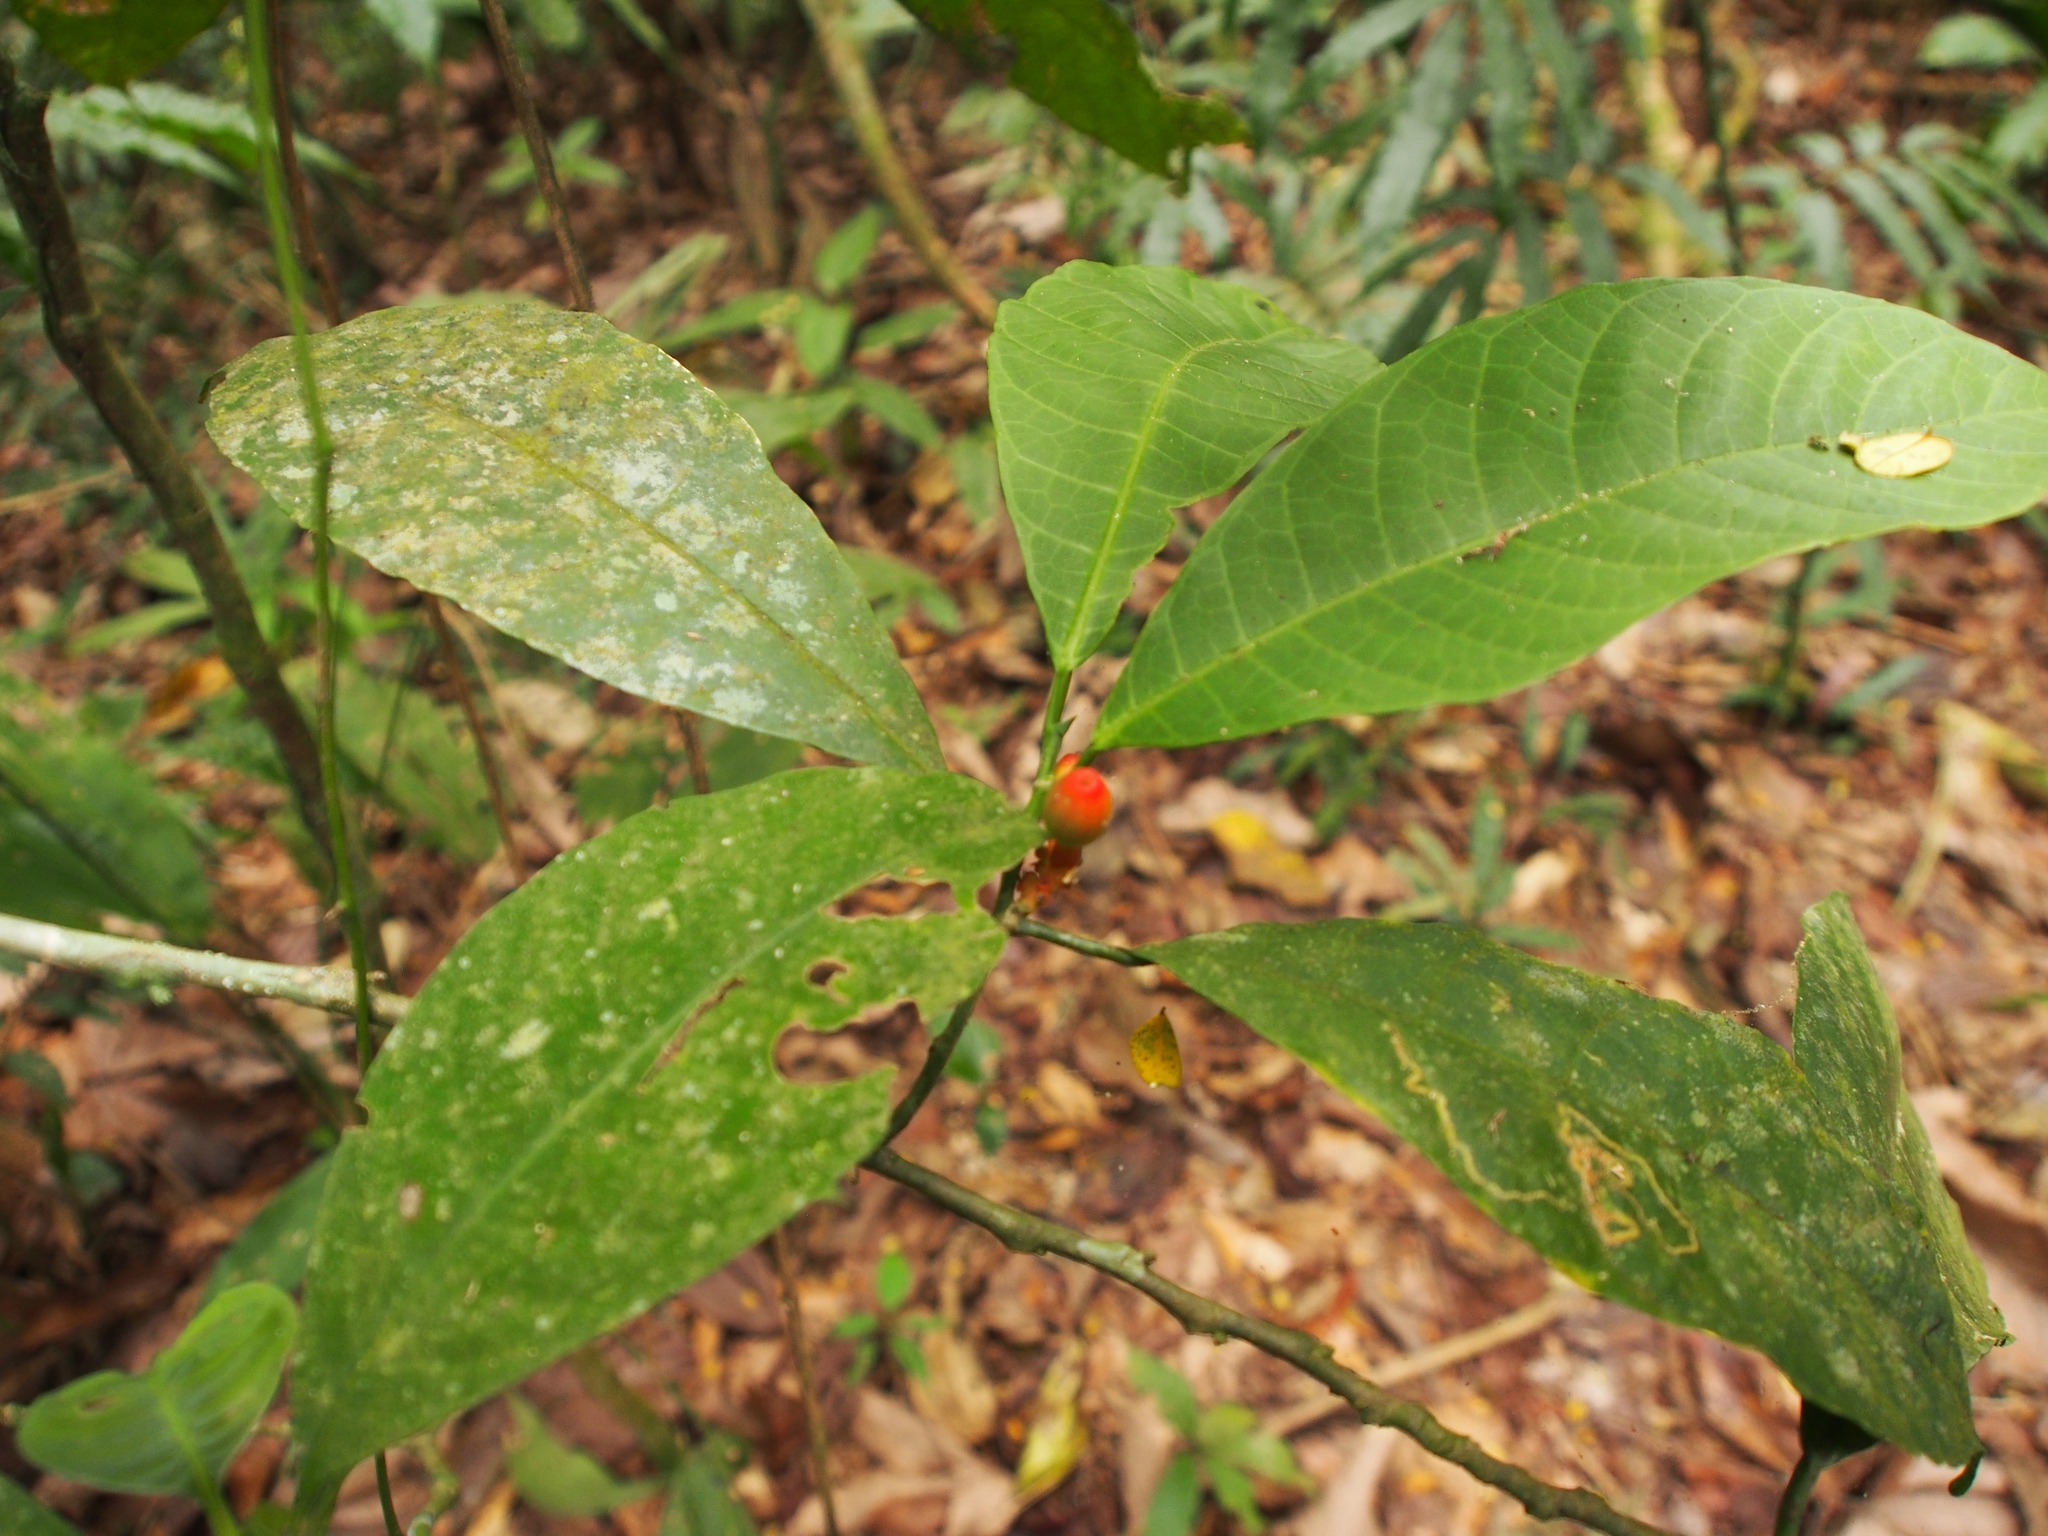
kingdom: Plantae
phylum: Tracheophyta
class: Magnoliopsida
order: Rosales
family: Moraceae
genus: Sorocea
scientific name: Sorocea affinis
